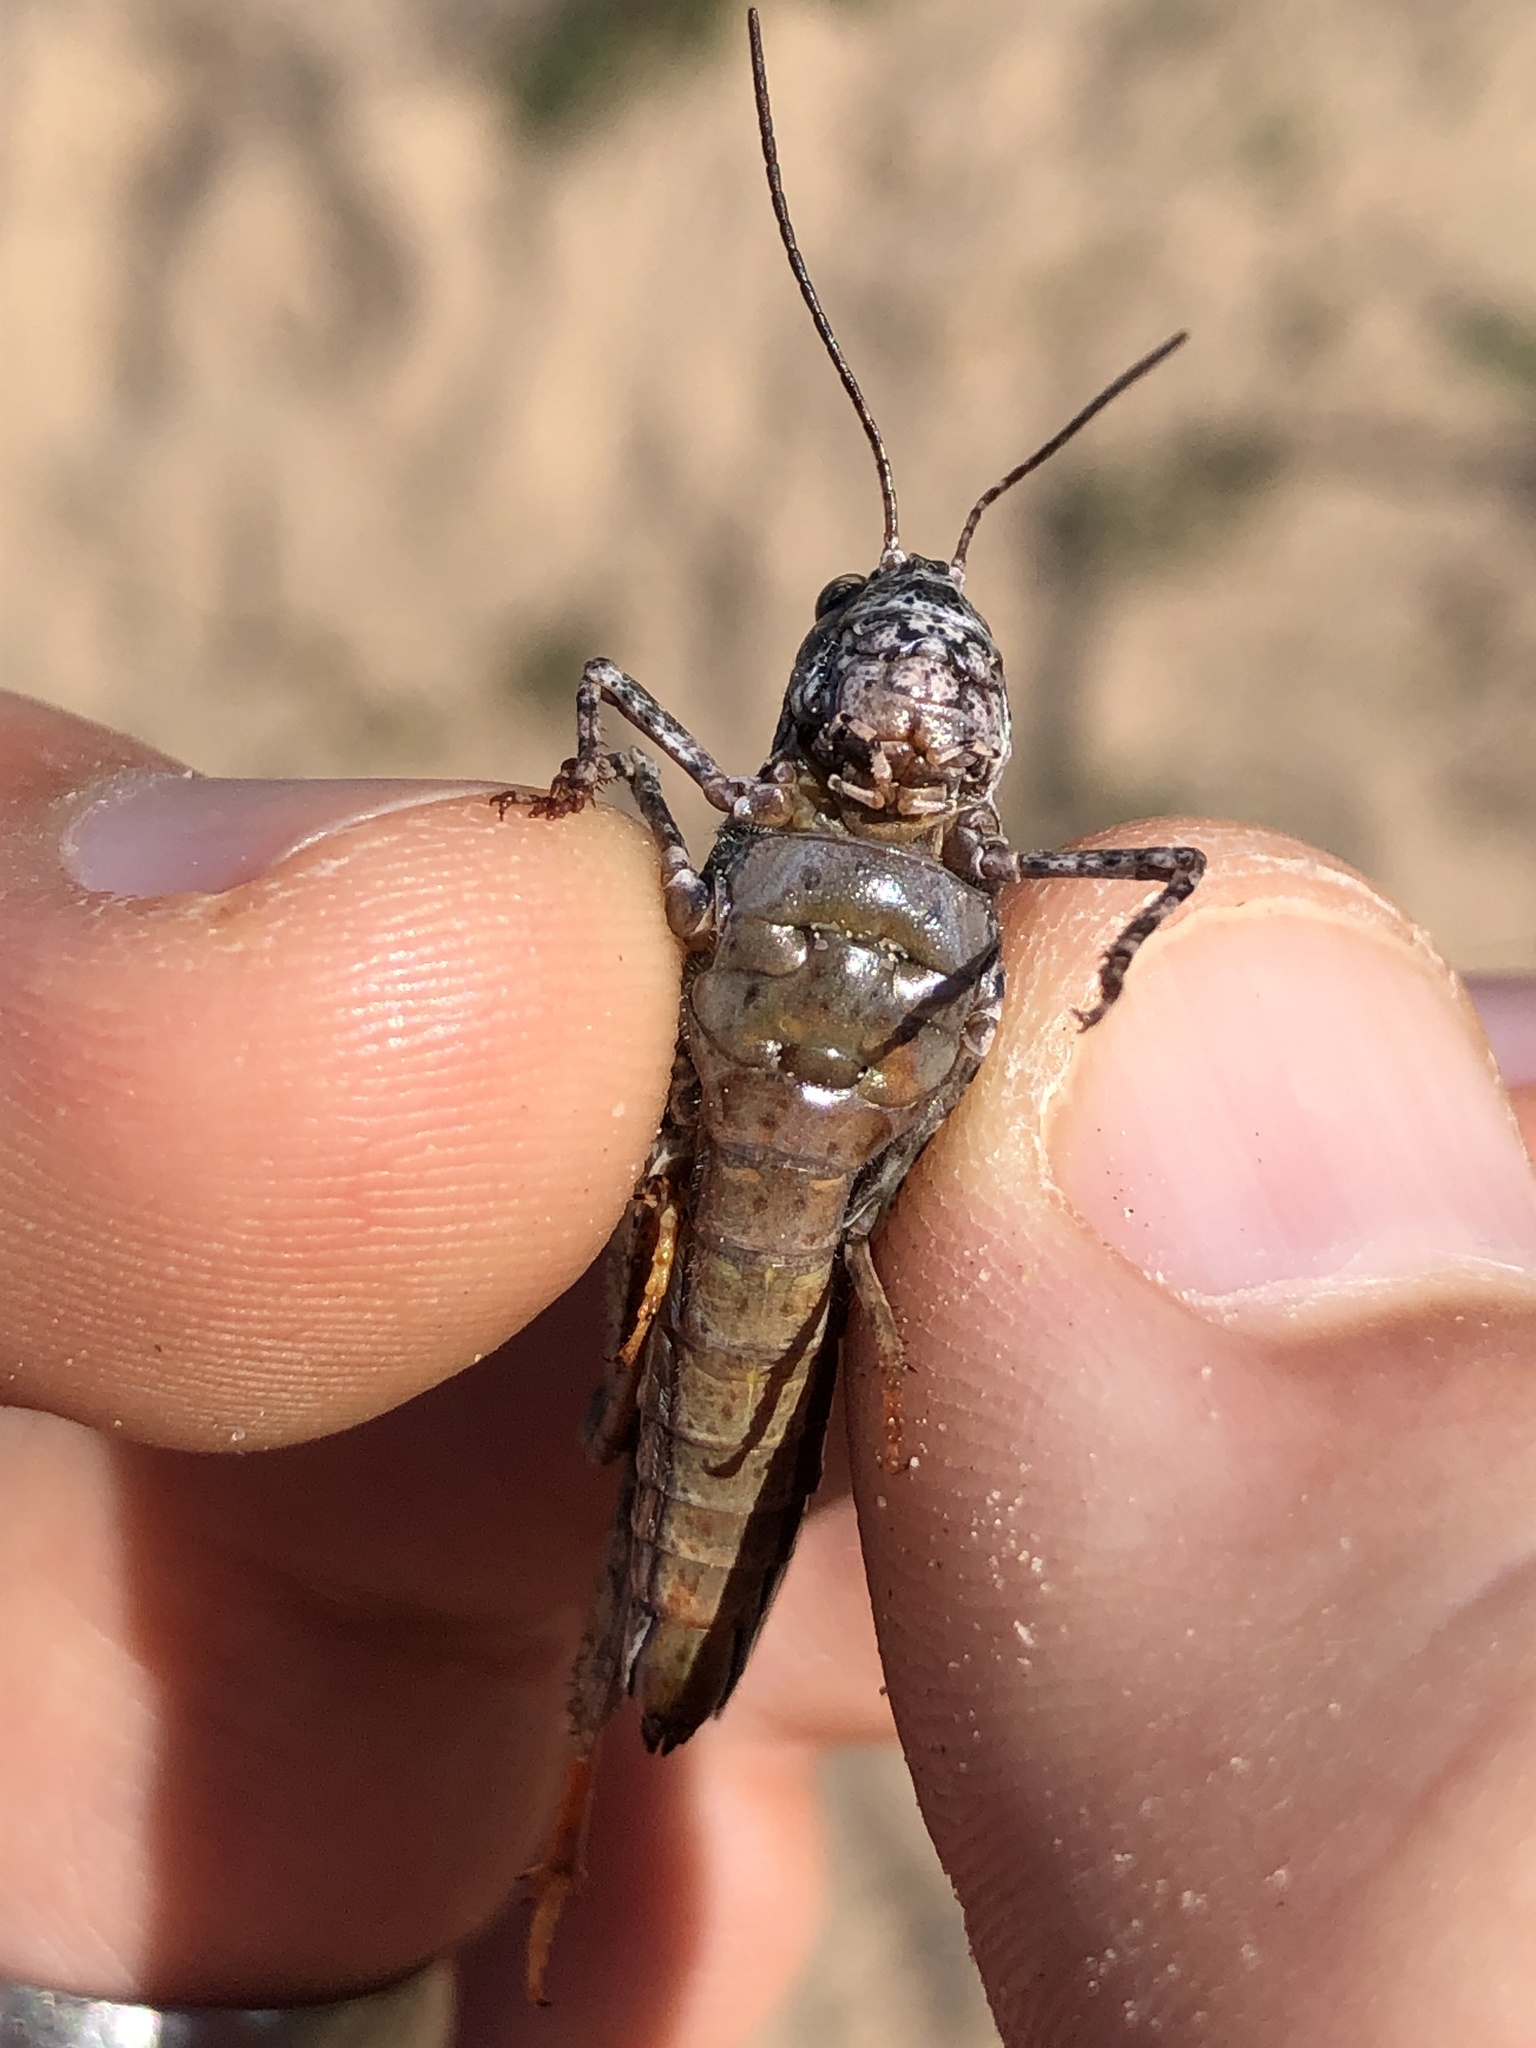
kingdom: Animalia
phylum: Arthropoda
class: Insecta
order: Orthoptera
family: Acrididae
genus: Spharagemon
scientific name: Spharagemon collare
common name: Mottled sand grasshopper
